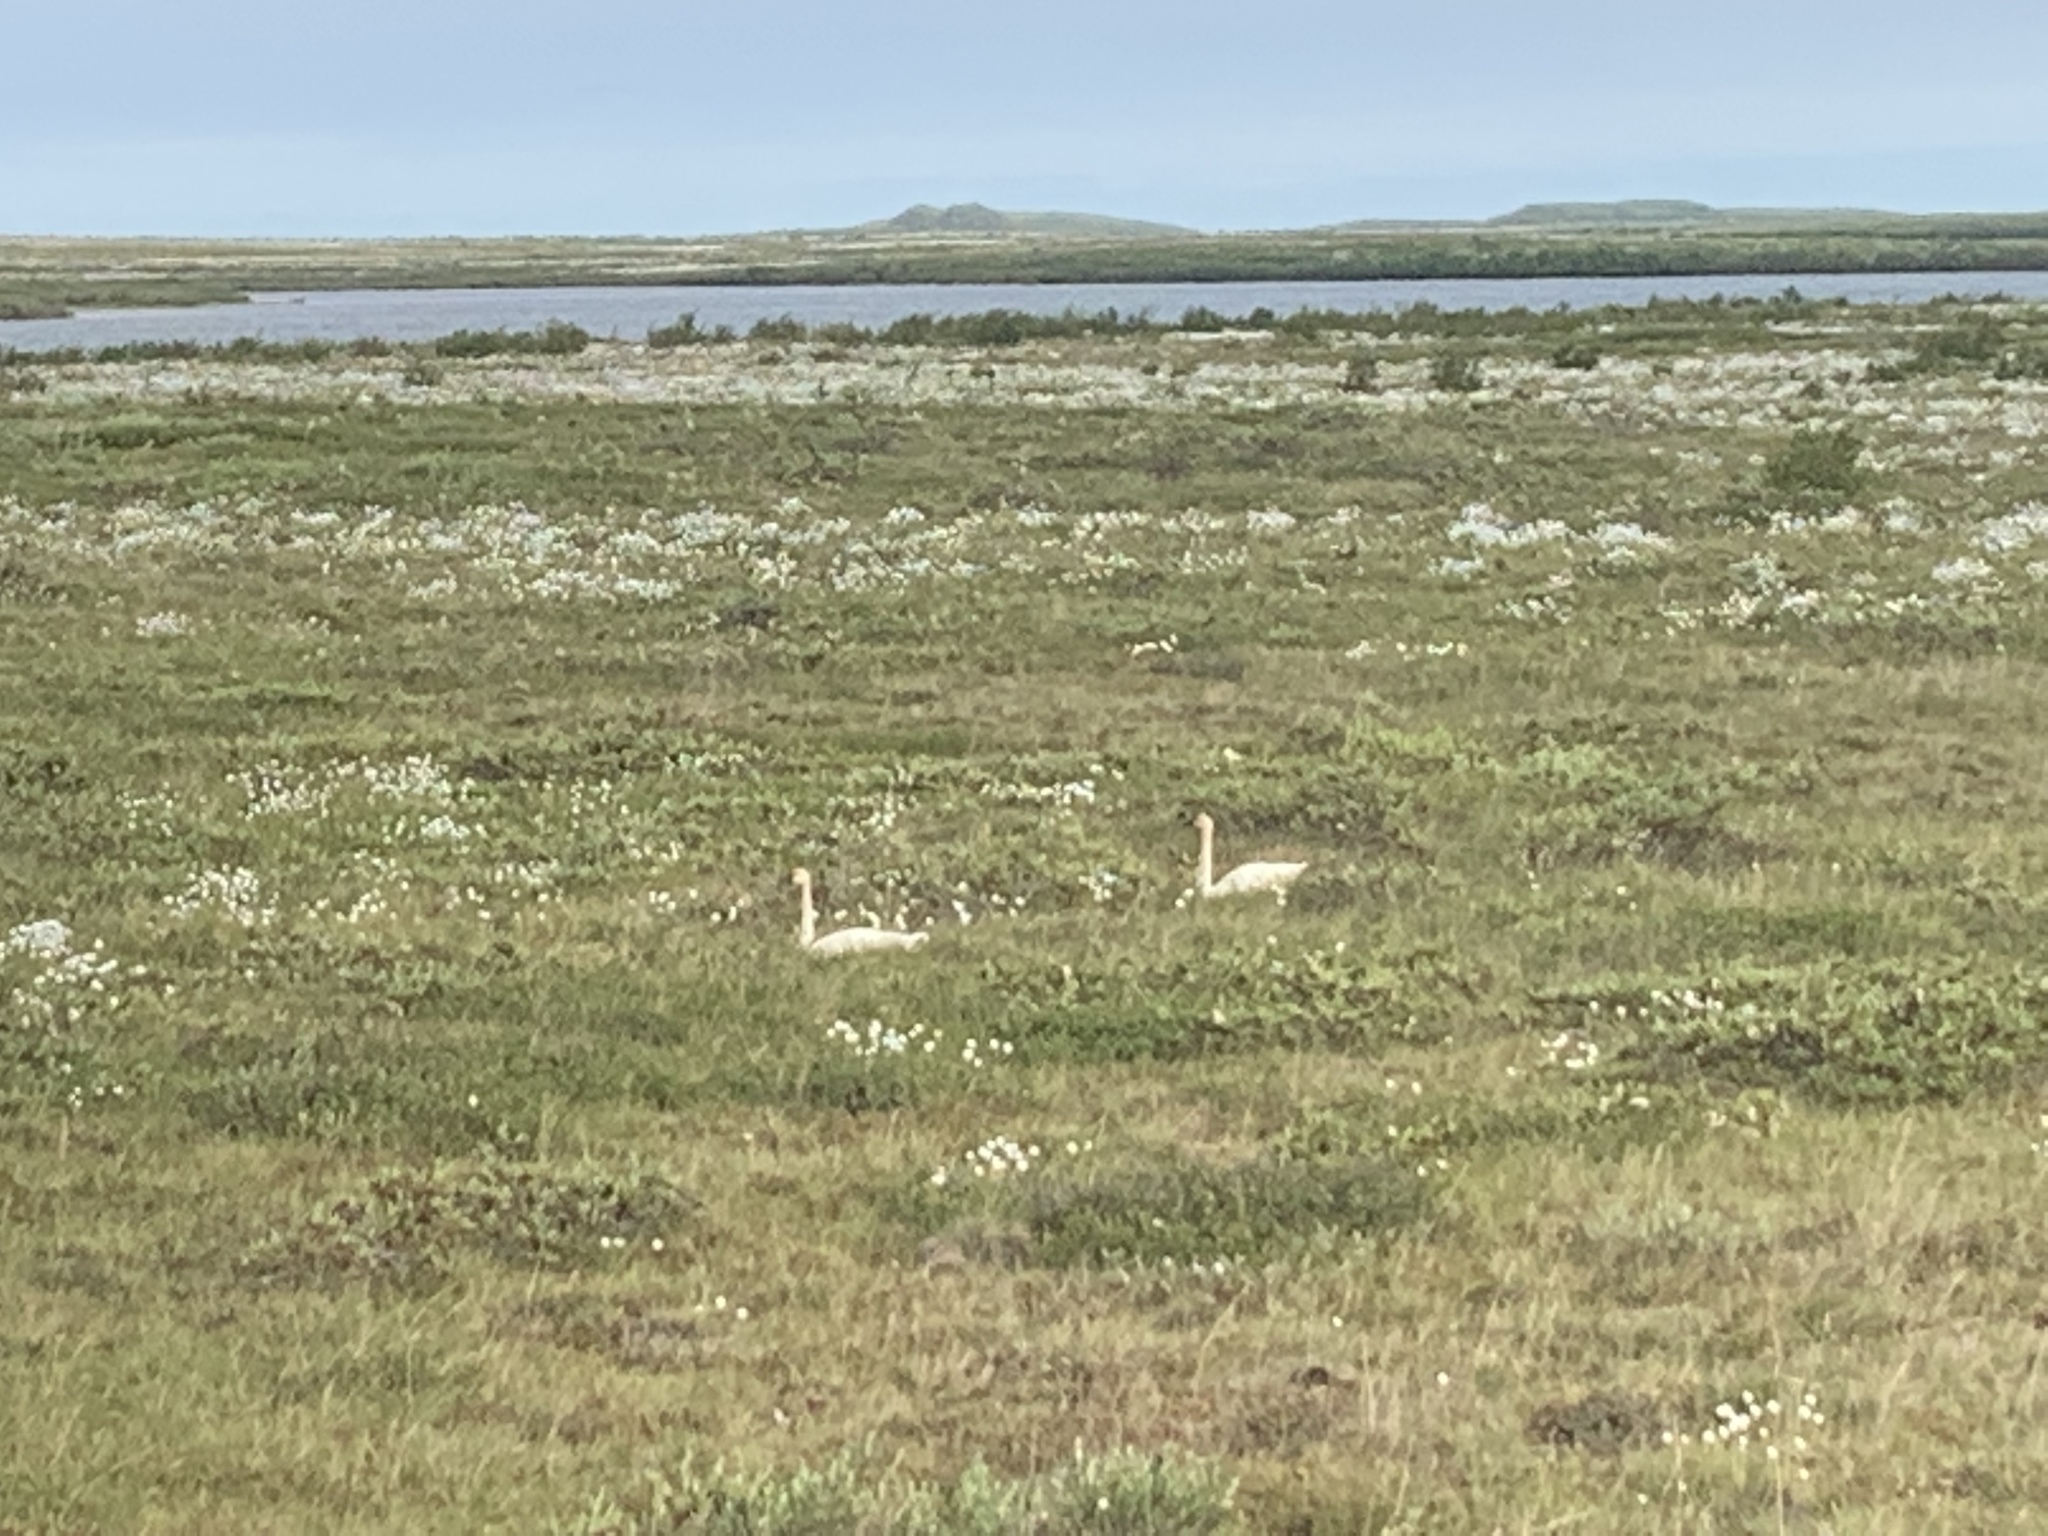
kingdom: Animalia
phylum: Chordata
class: Aves
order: Anseriformes
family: Anatidae
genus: Cygnus
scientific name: Cygnus columbianus
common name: Tundra swan
